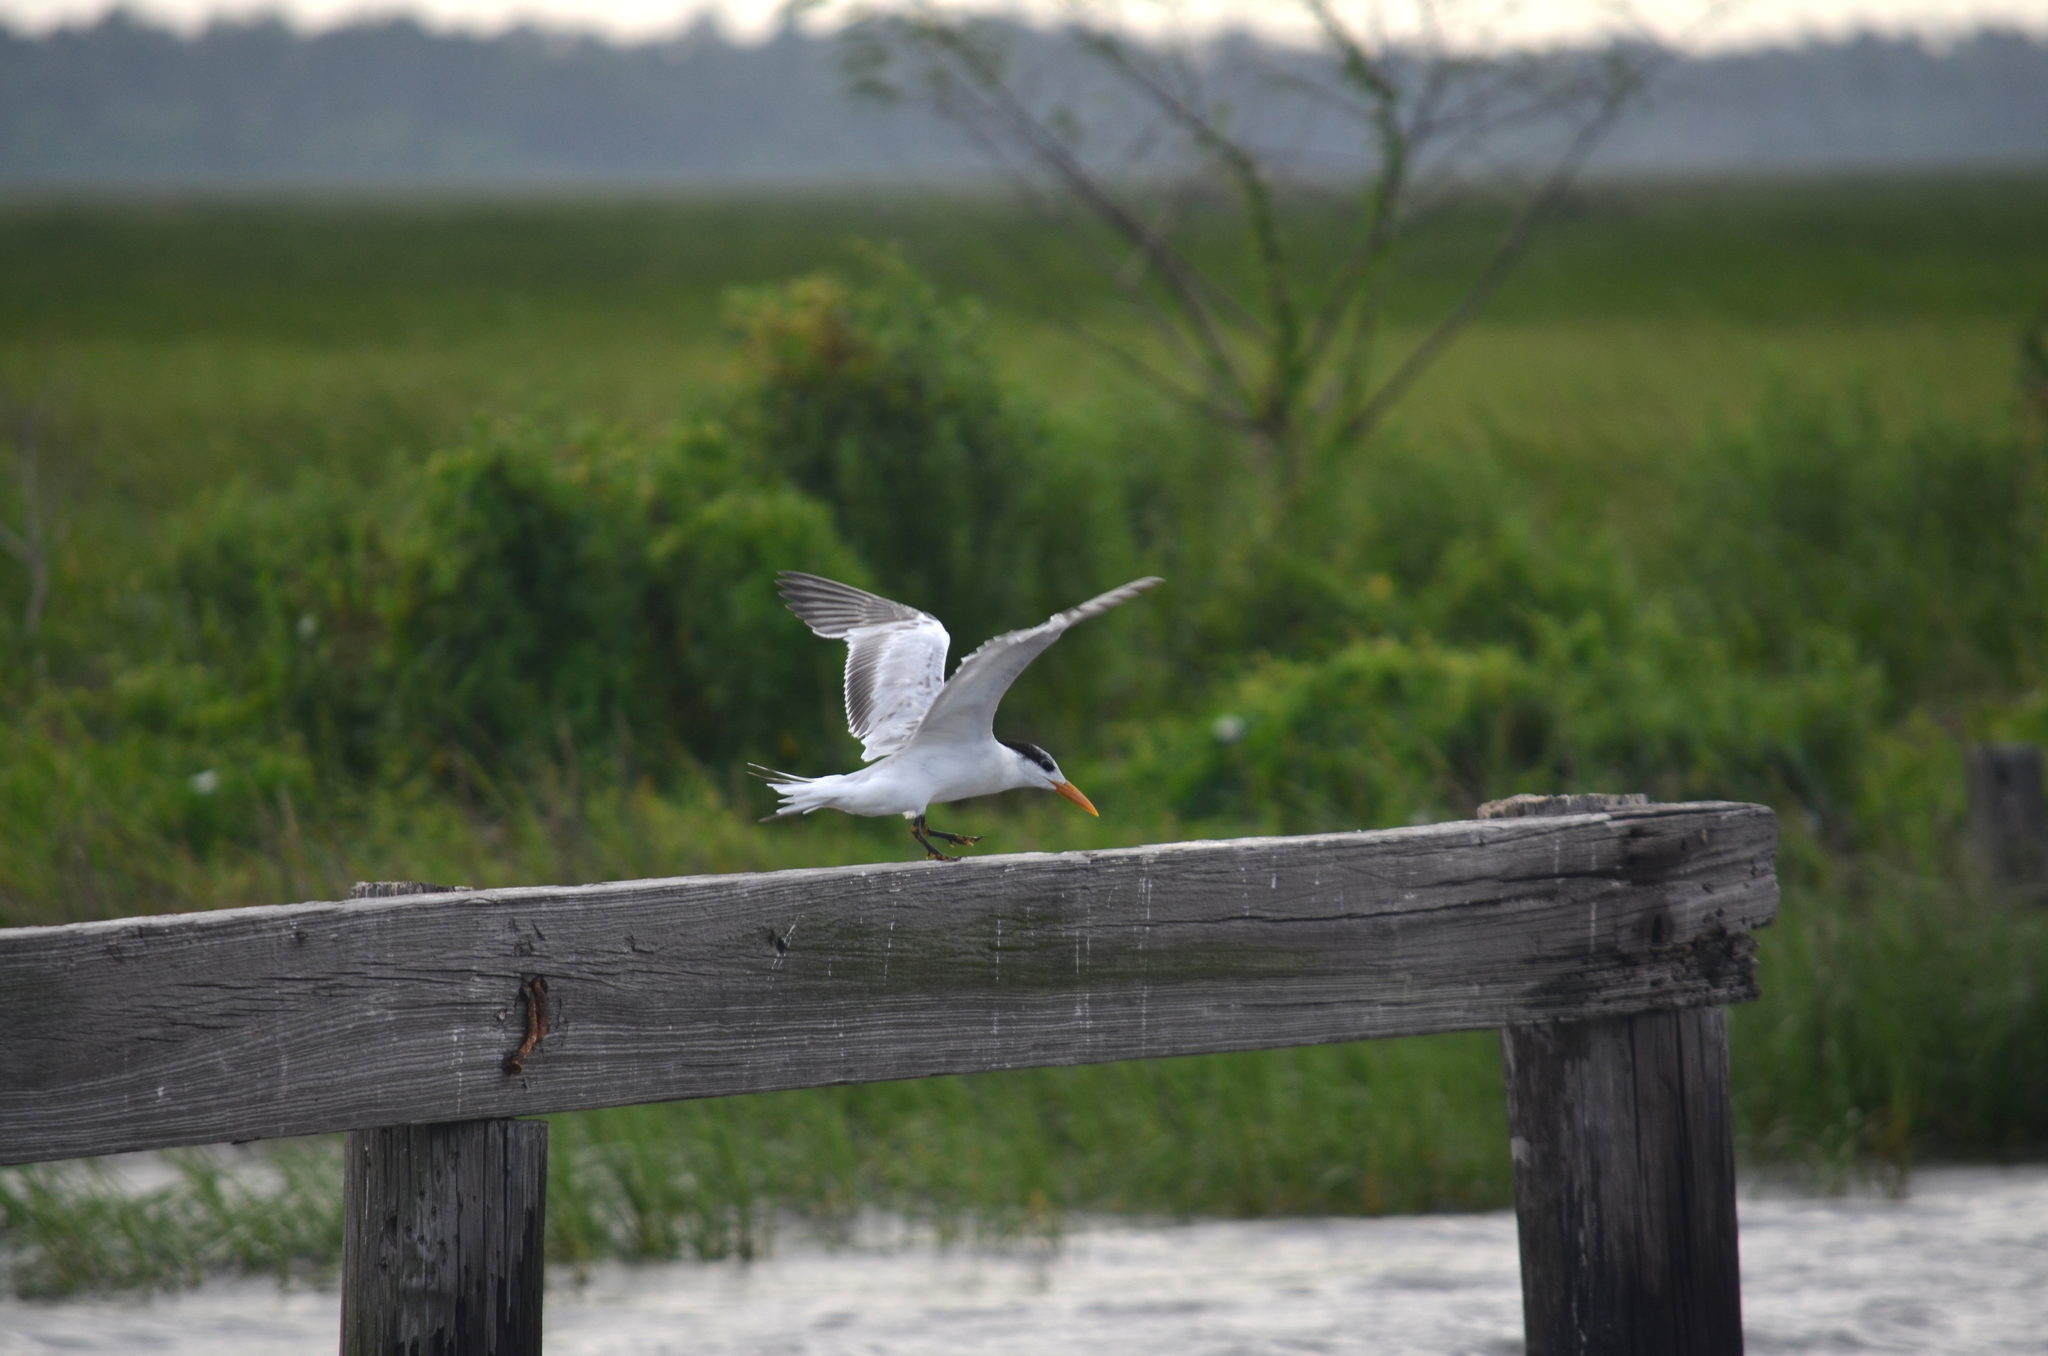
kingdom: Animalia
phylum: Chordata
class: Aves
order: Charadriiformes
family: Laridae
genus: Thalasseus
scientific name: Thalasseus maximus
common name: Royal tern
